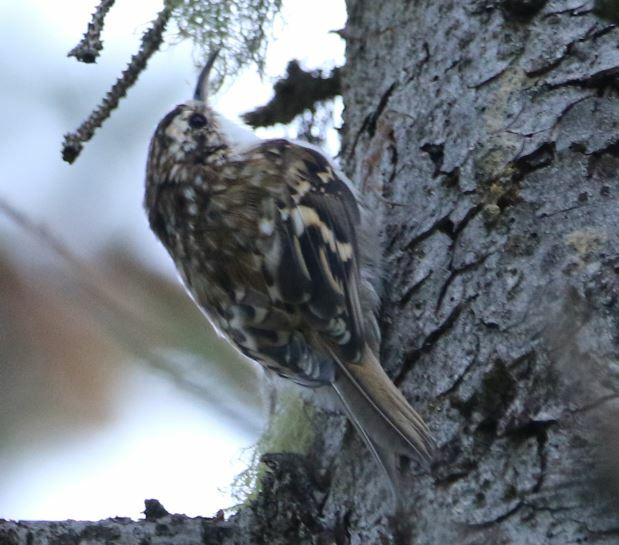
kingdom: Animalia
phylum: Chordata
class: Aves
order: Passeriformes
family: Certhiidae
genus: Certhia
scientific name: Certhia familiaris
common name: Eurasian treecreeper
